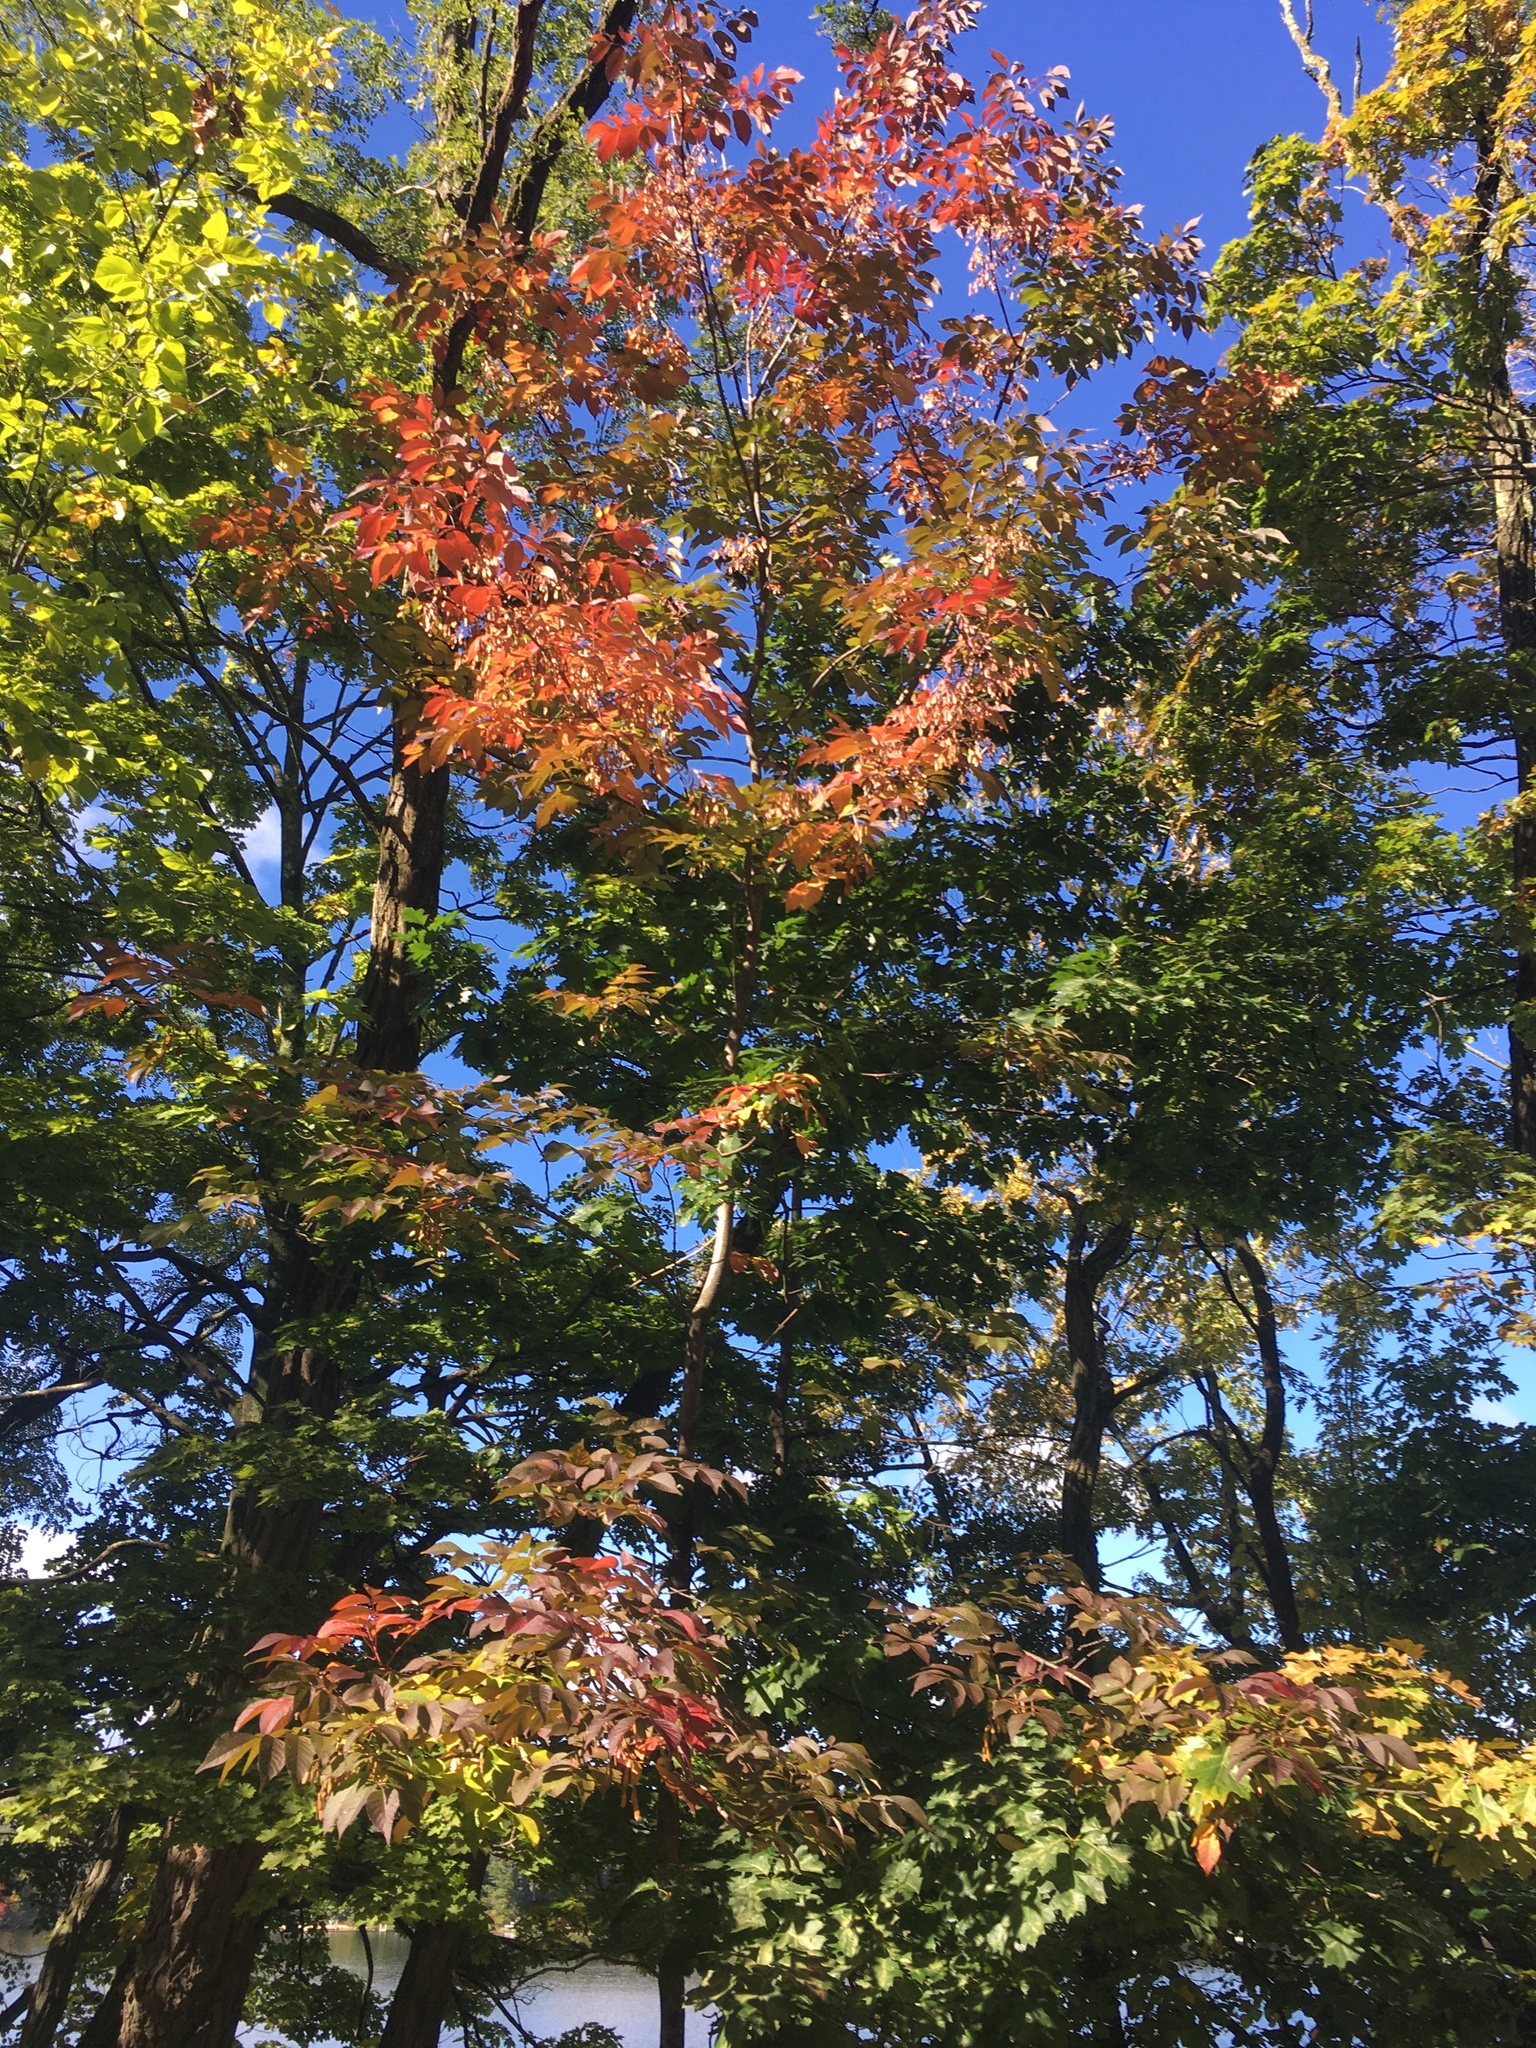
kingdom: Plantae
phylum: Tracheophyta
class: Magnoliopsida
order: Lamiales
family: Oleaceae
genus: Fraxinus
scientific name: Fraxinus americana
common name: White ash
